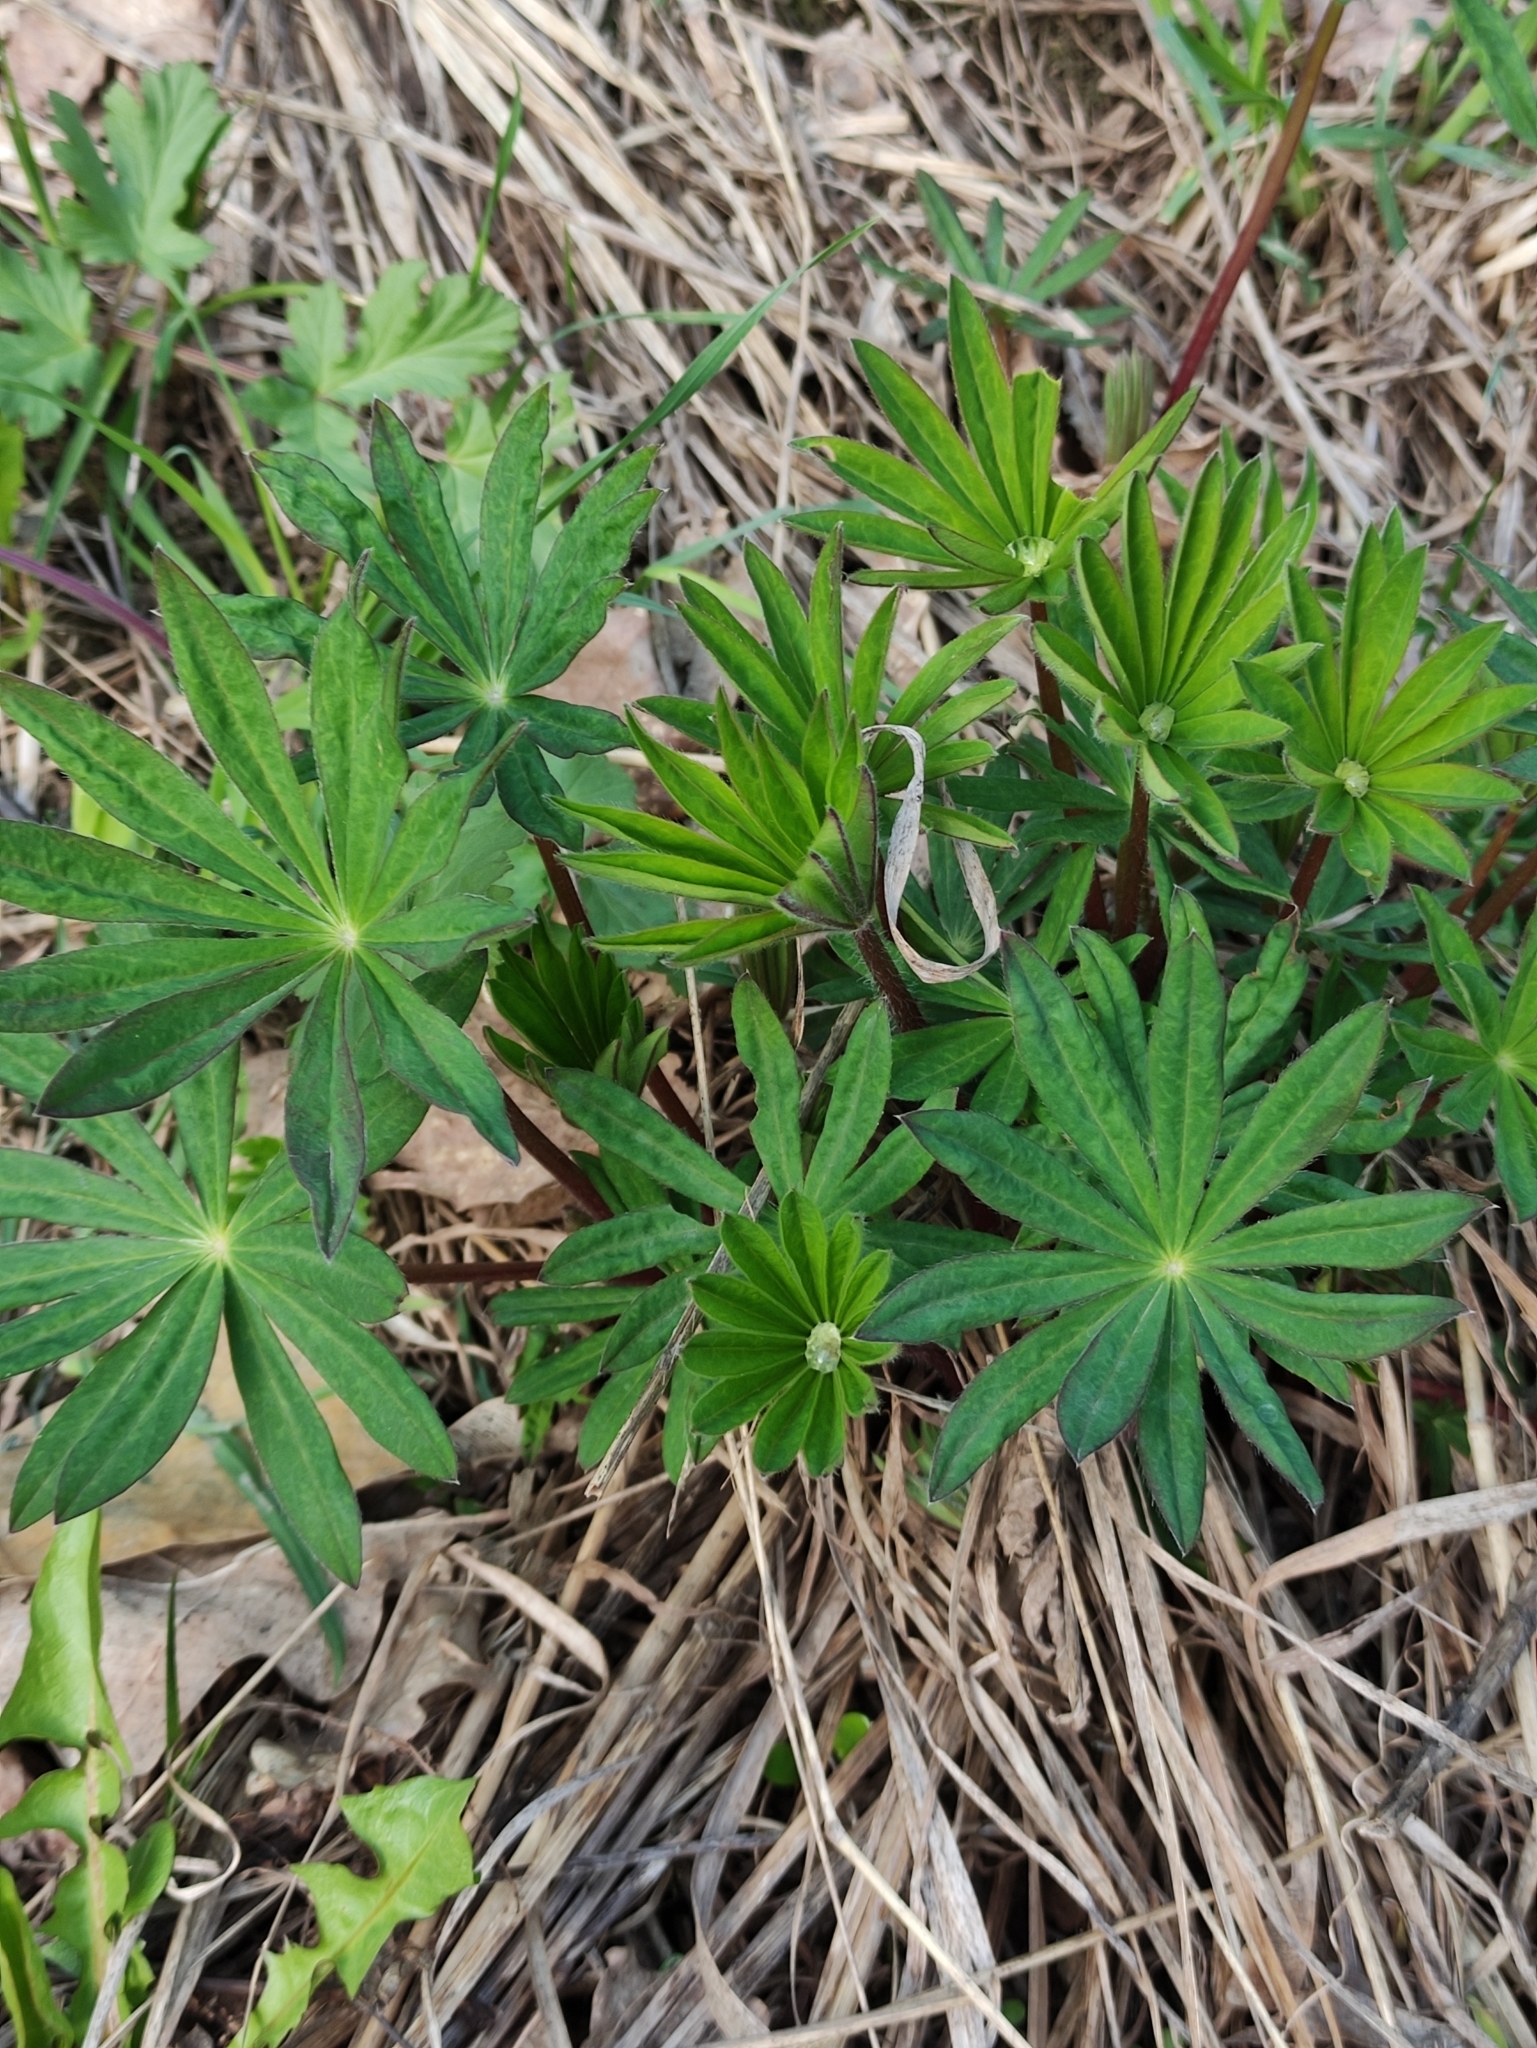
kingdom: Plantae
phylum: Tracheophyta
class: Magnoliopsida
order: Fabales
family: Fabaceae
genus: Lupinus
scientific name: Lupinus polyphyllus
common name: Garden lupin
